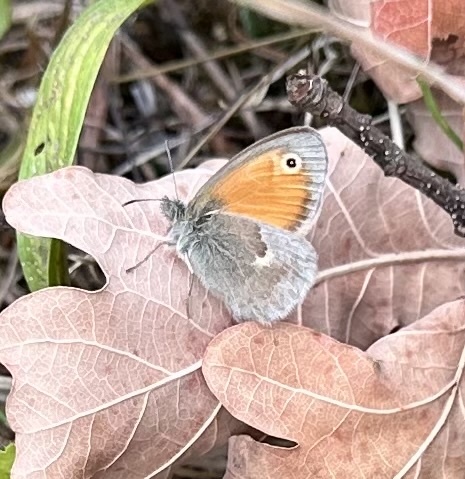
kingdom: Animalia
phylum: Arthropoda
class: Insecta
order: Lepidoptera
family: Nymphalidae
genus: Coenonympha
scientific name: Coenonympha pamphilus
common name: Small heath
